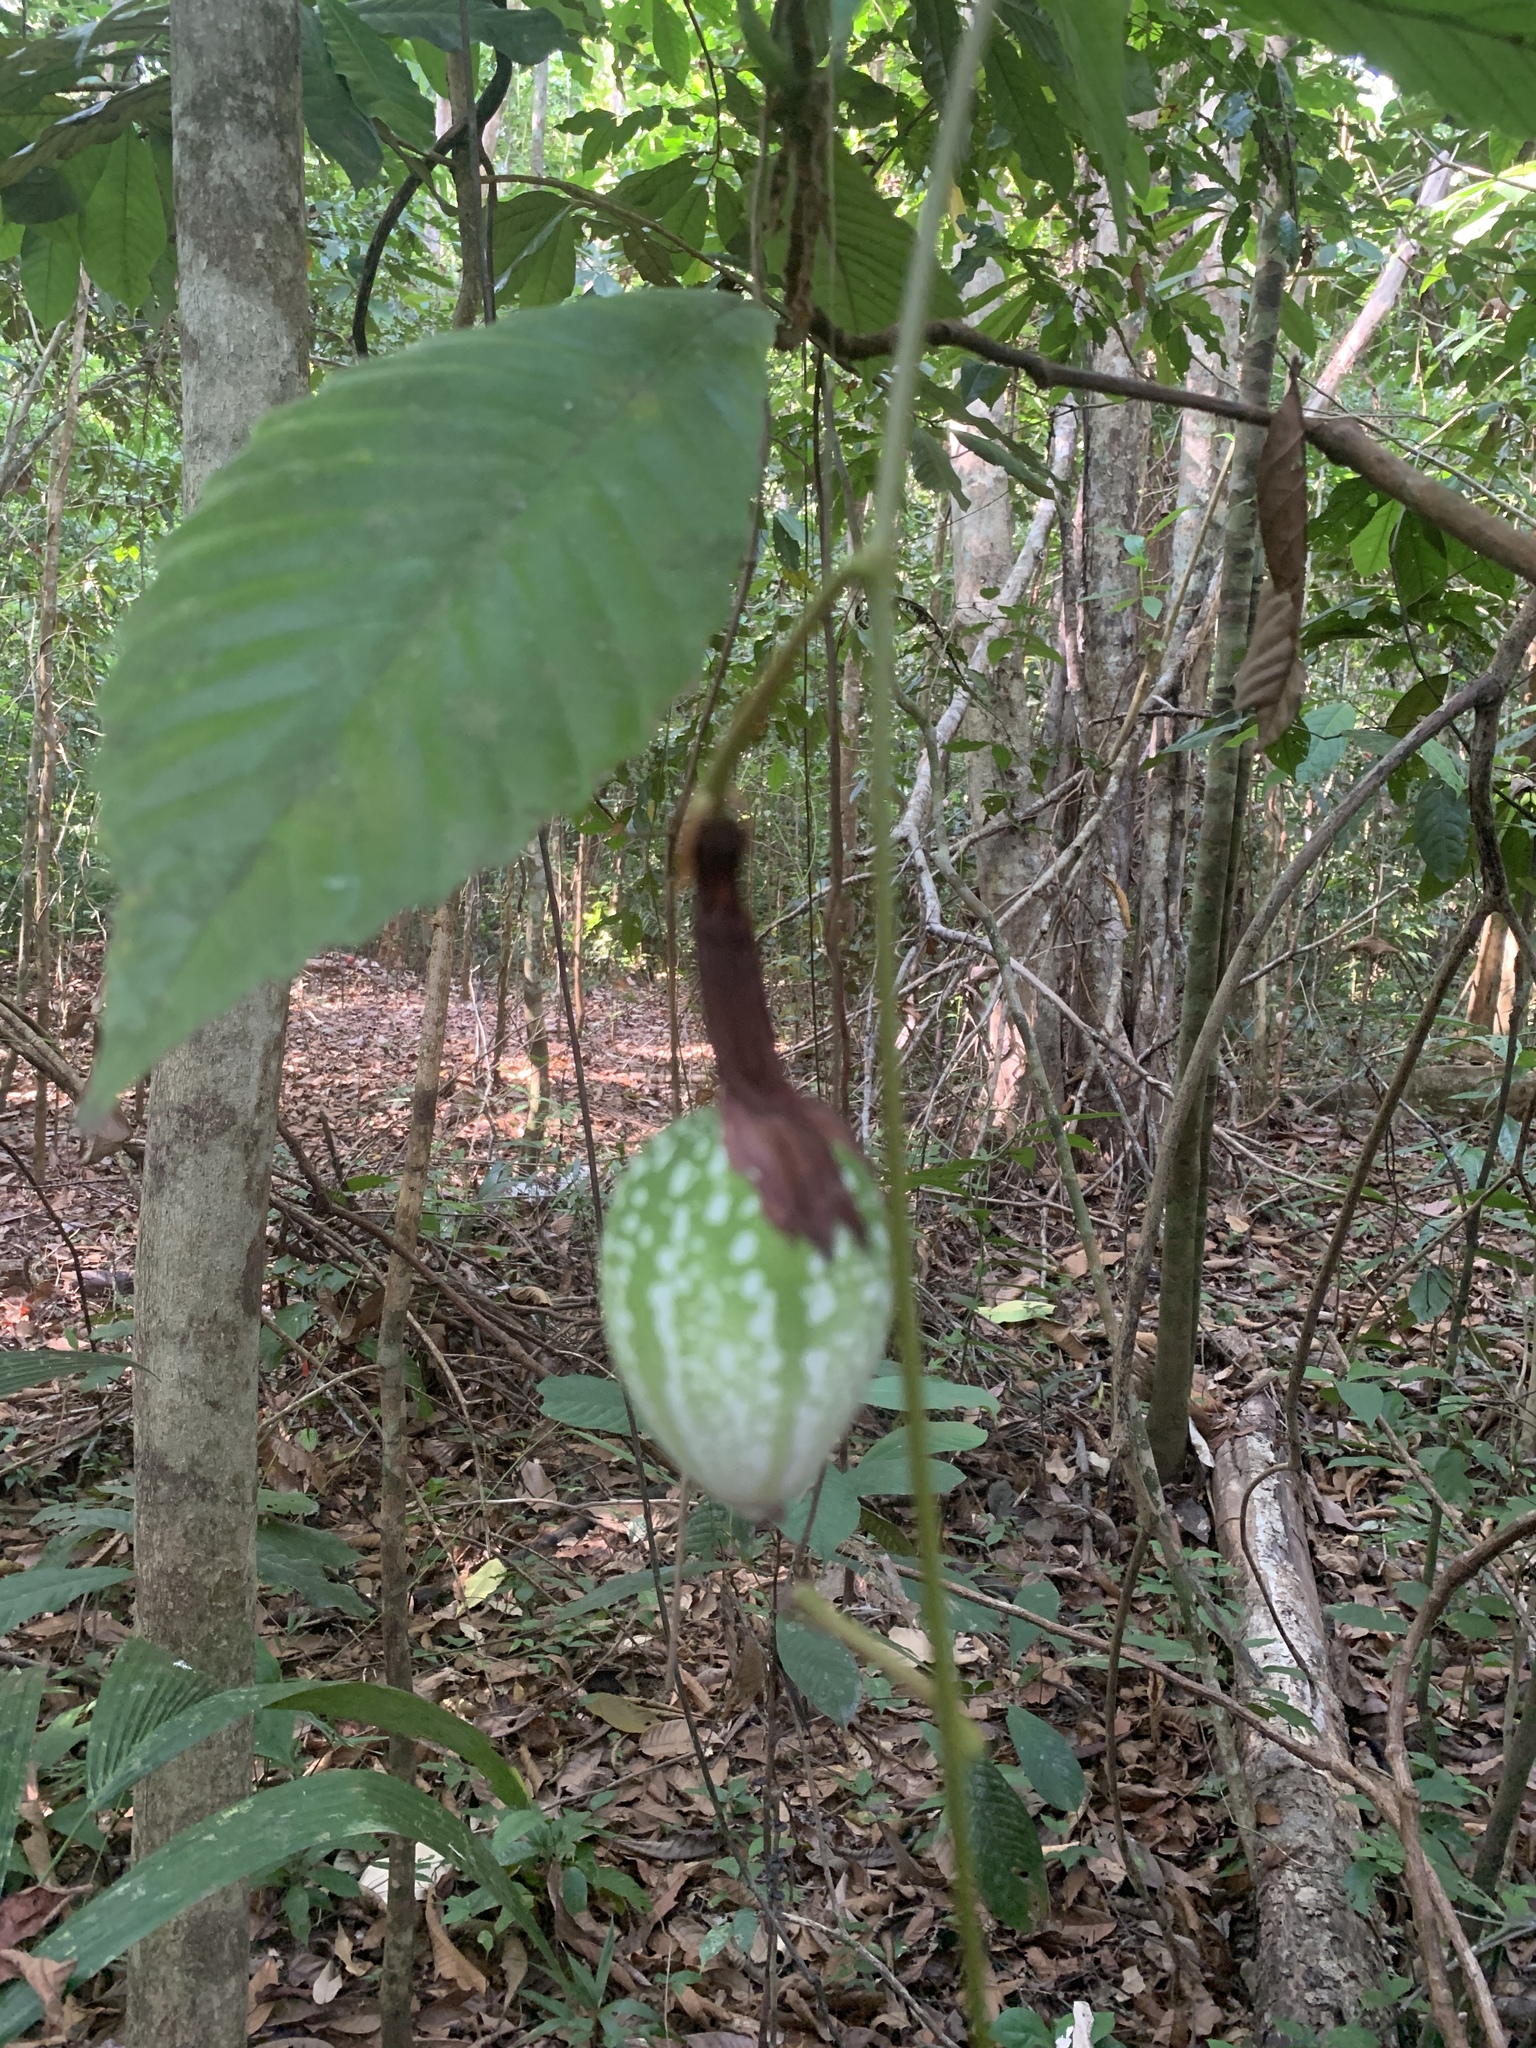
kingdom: Plantae
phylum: Tracheophyta
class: Magnoliopsida
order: Malpighiales
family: Passifloraceae
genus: Passiflora
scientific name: Passiflora vitifolia
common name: Perfumed passionflower
